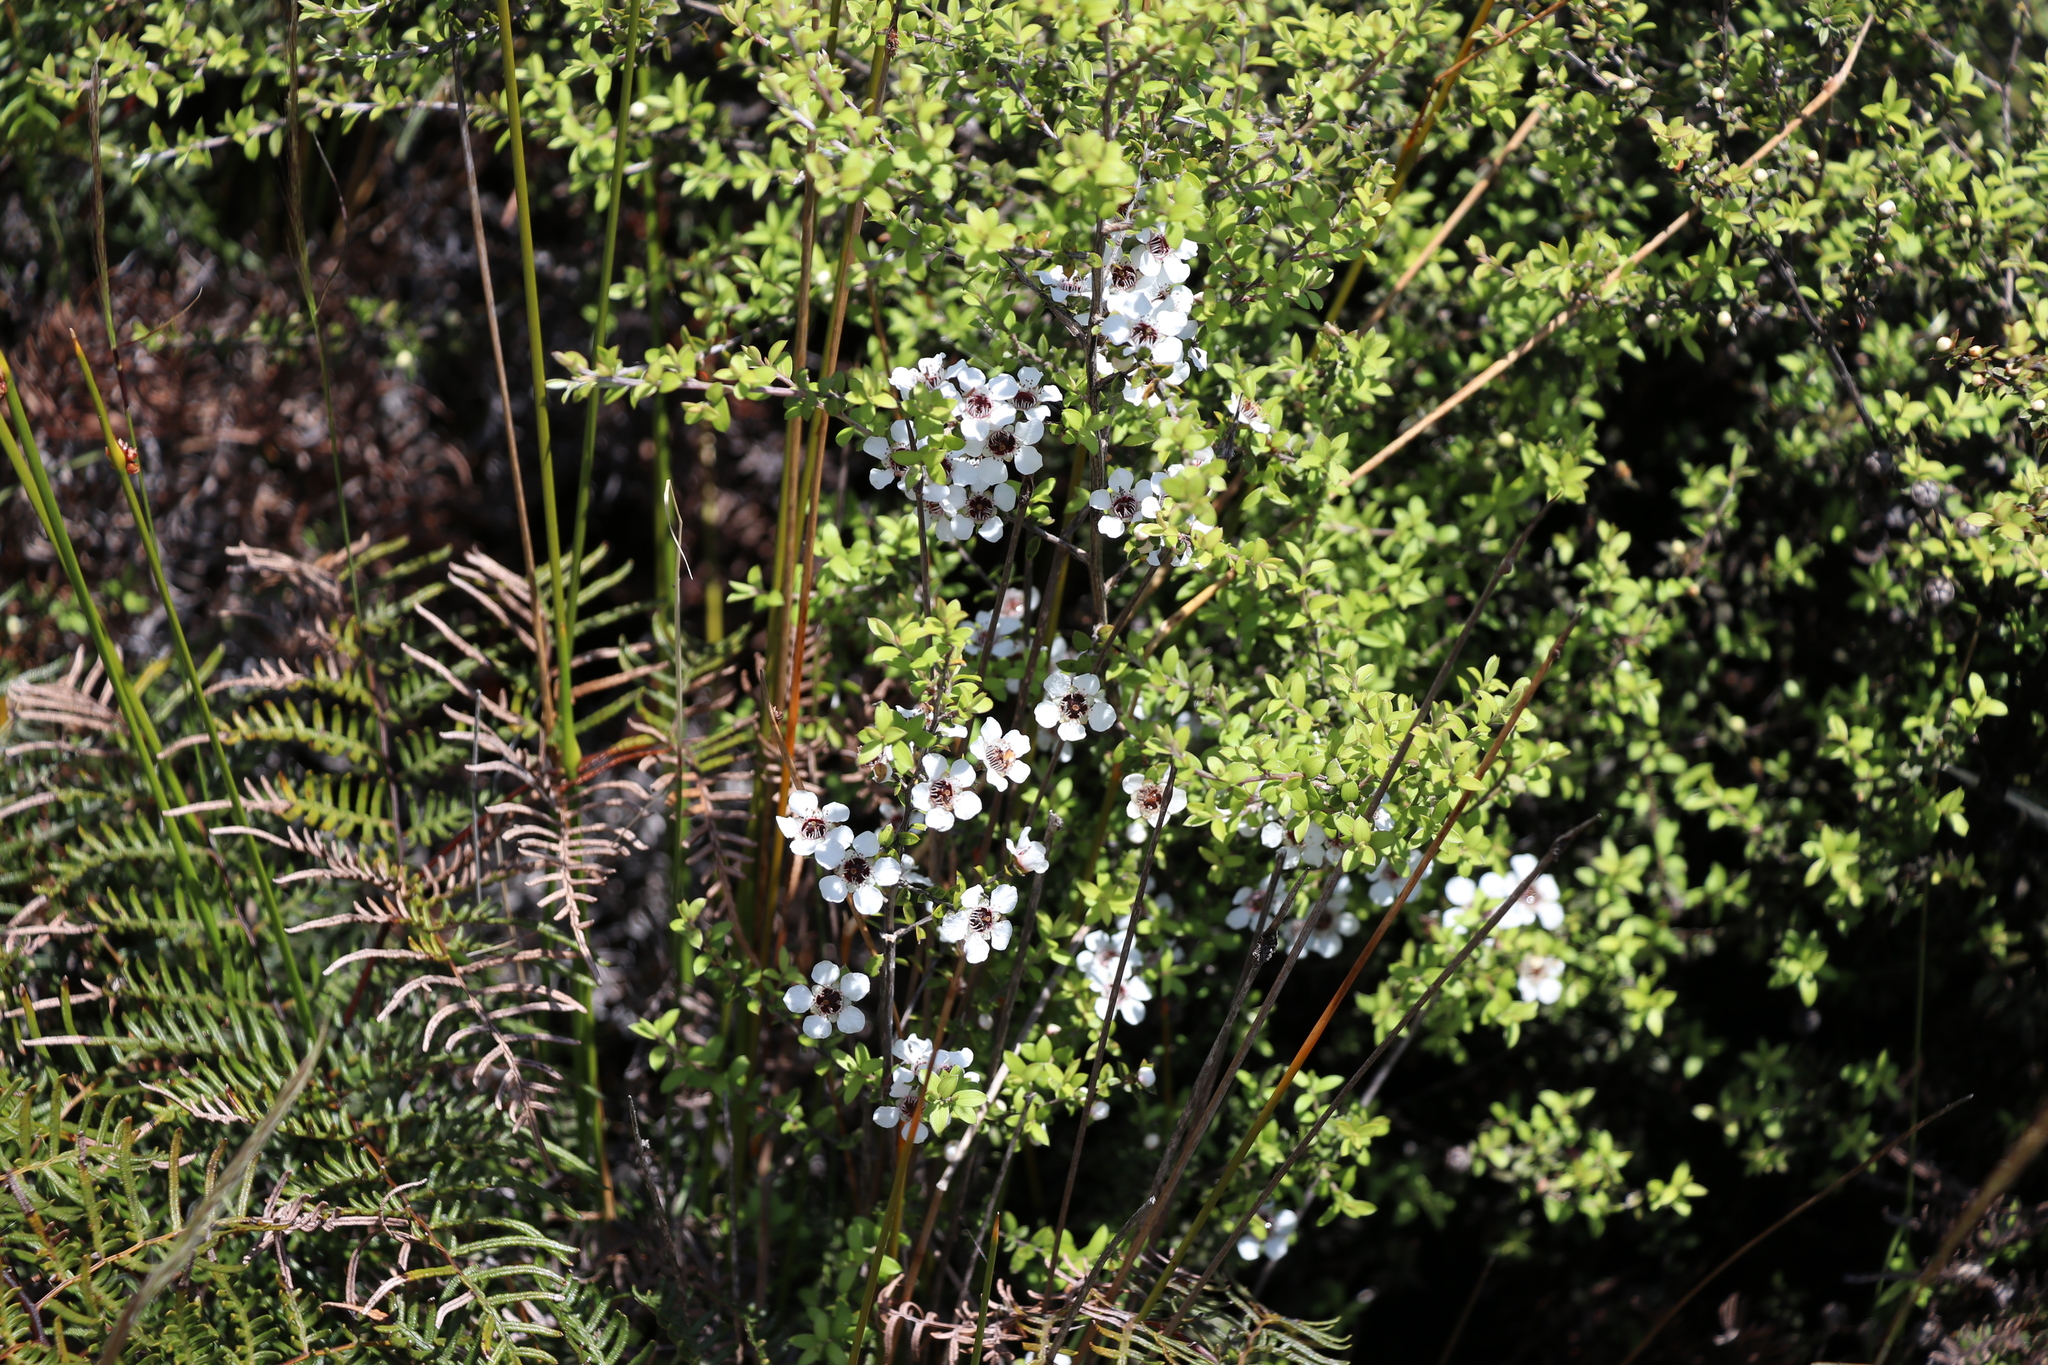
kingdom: Plantae
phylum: Tracheophyta
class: Magnoliopsida
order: Myrtales
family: Myrtaceae
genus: Leptospermum
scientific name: Leptospermum scoparium
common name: Broom tea-tree
